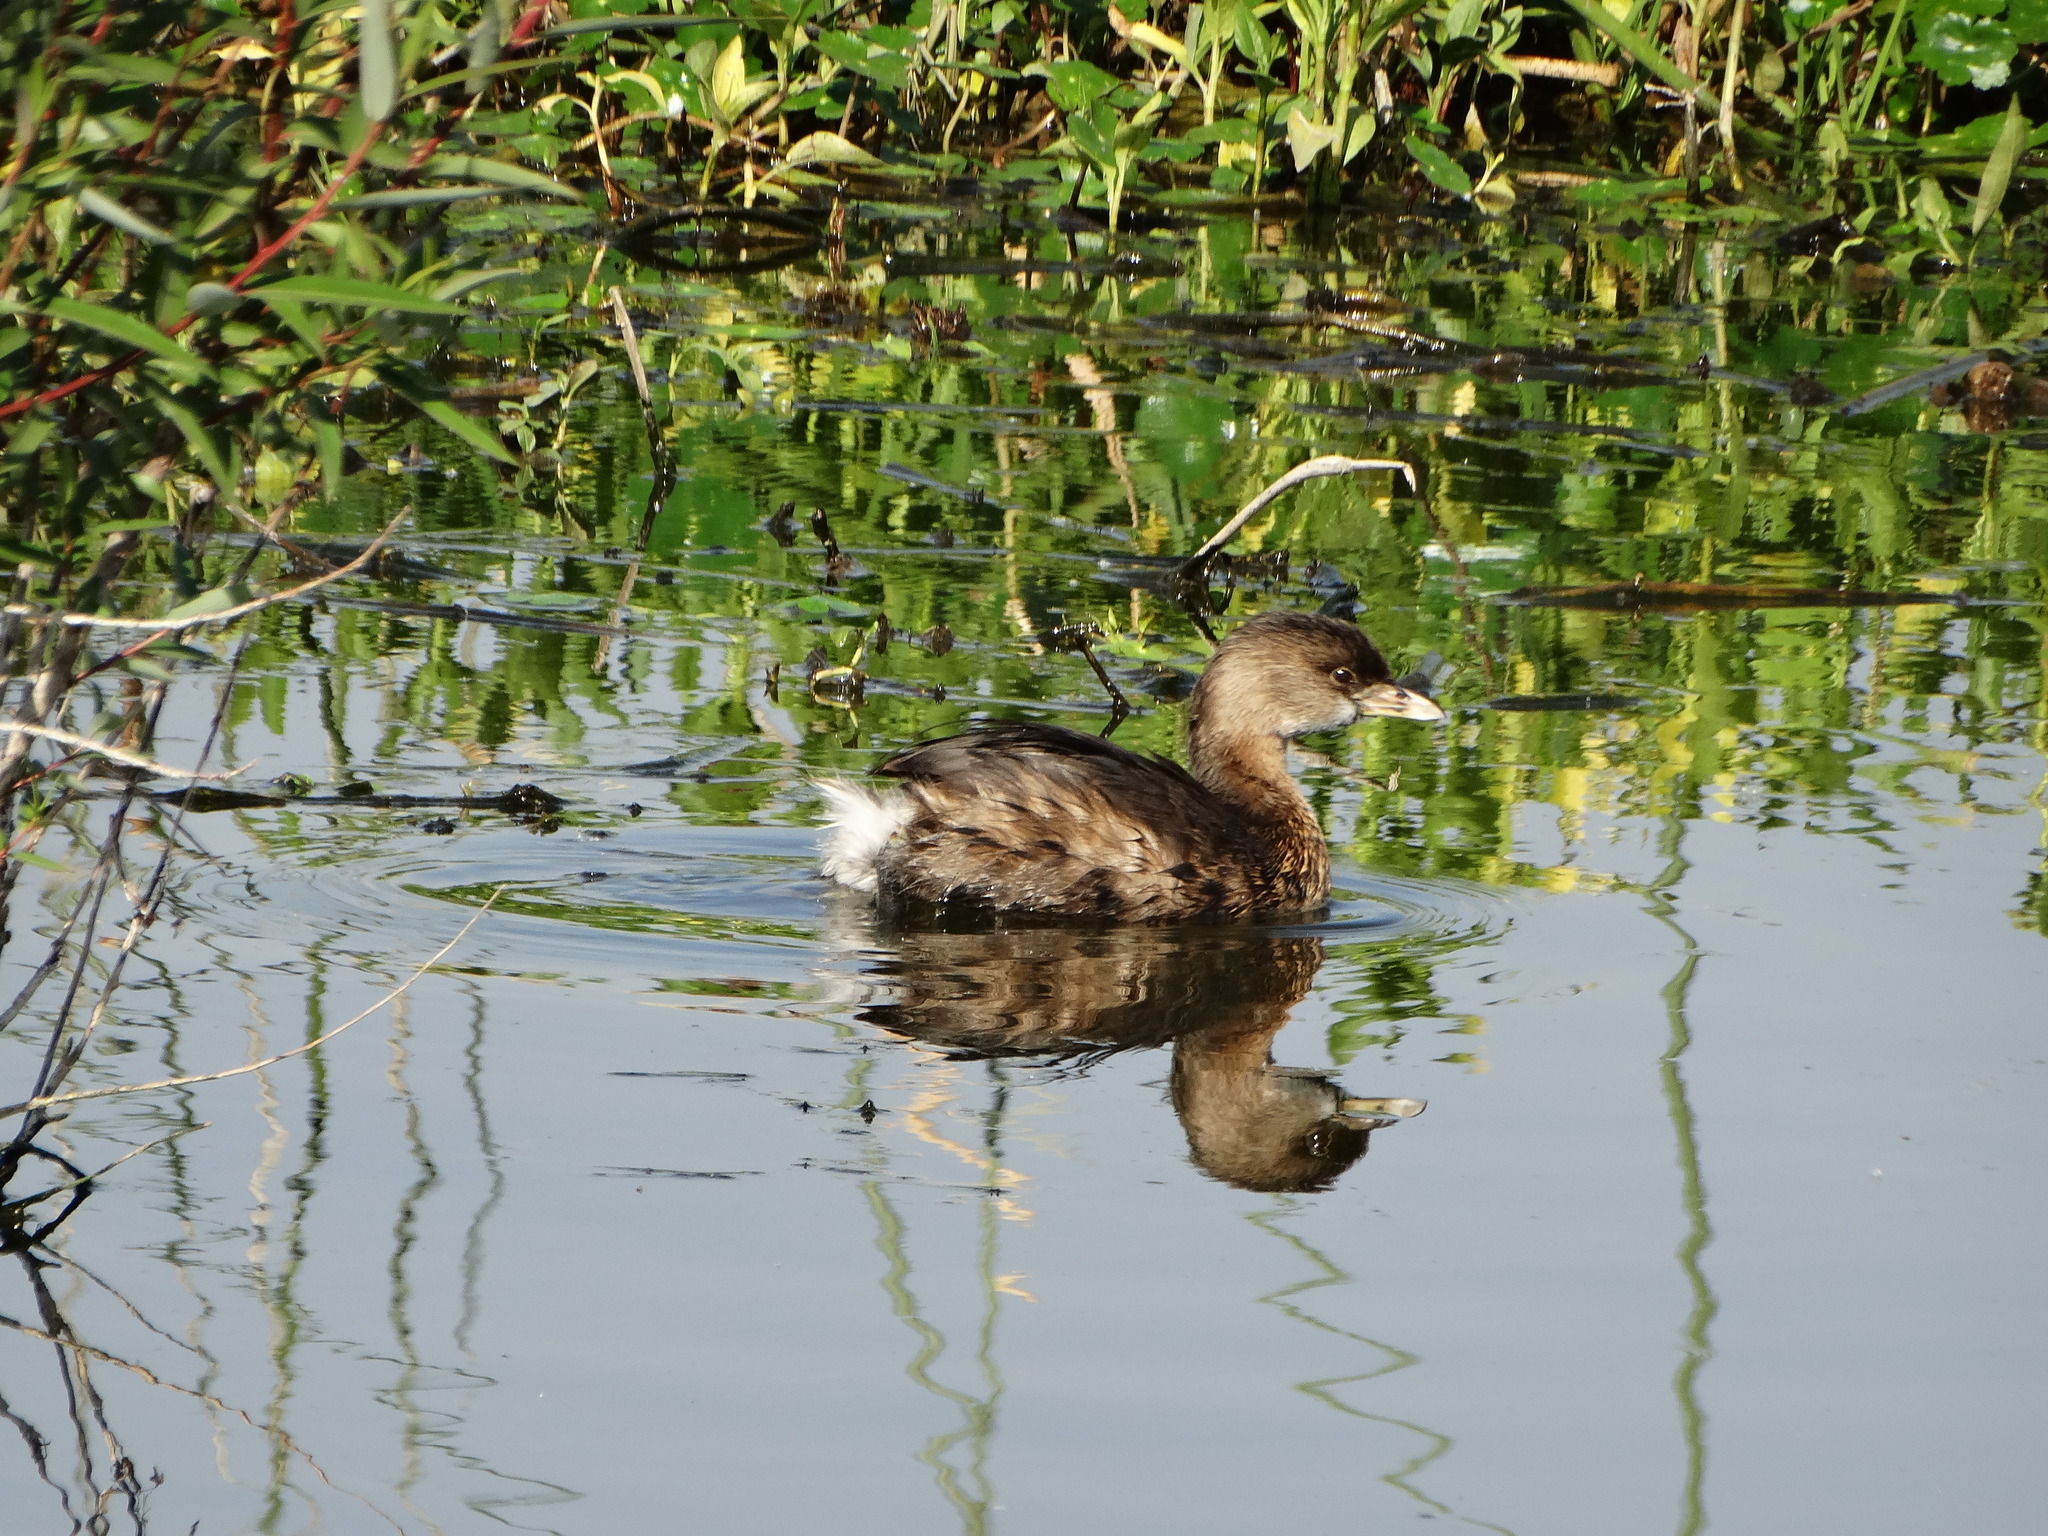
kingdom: Animalia
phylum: Chordata
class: Aves
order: Podicipediformes
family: Podicipedidae
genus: Podilymbus
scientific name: Podilymbus podiceps
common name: Pied-billed grebe
